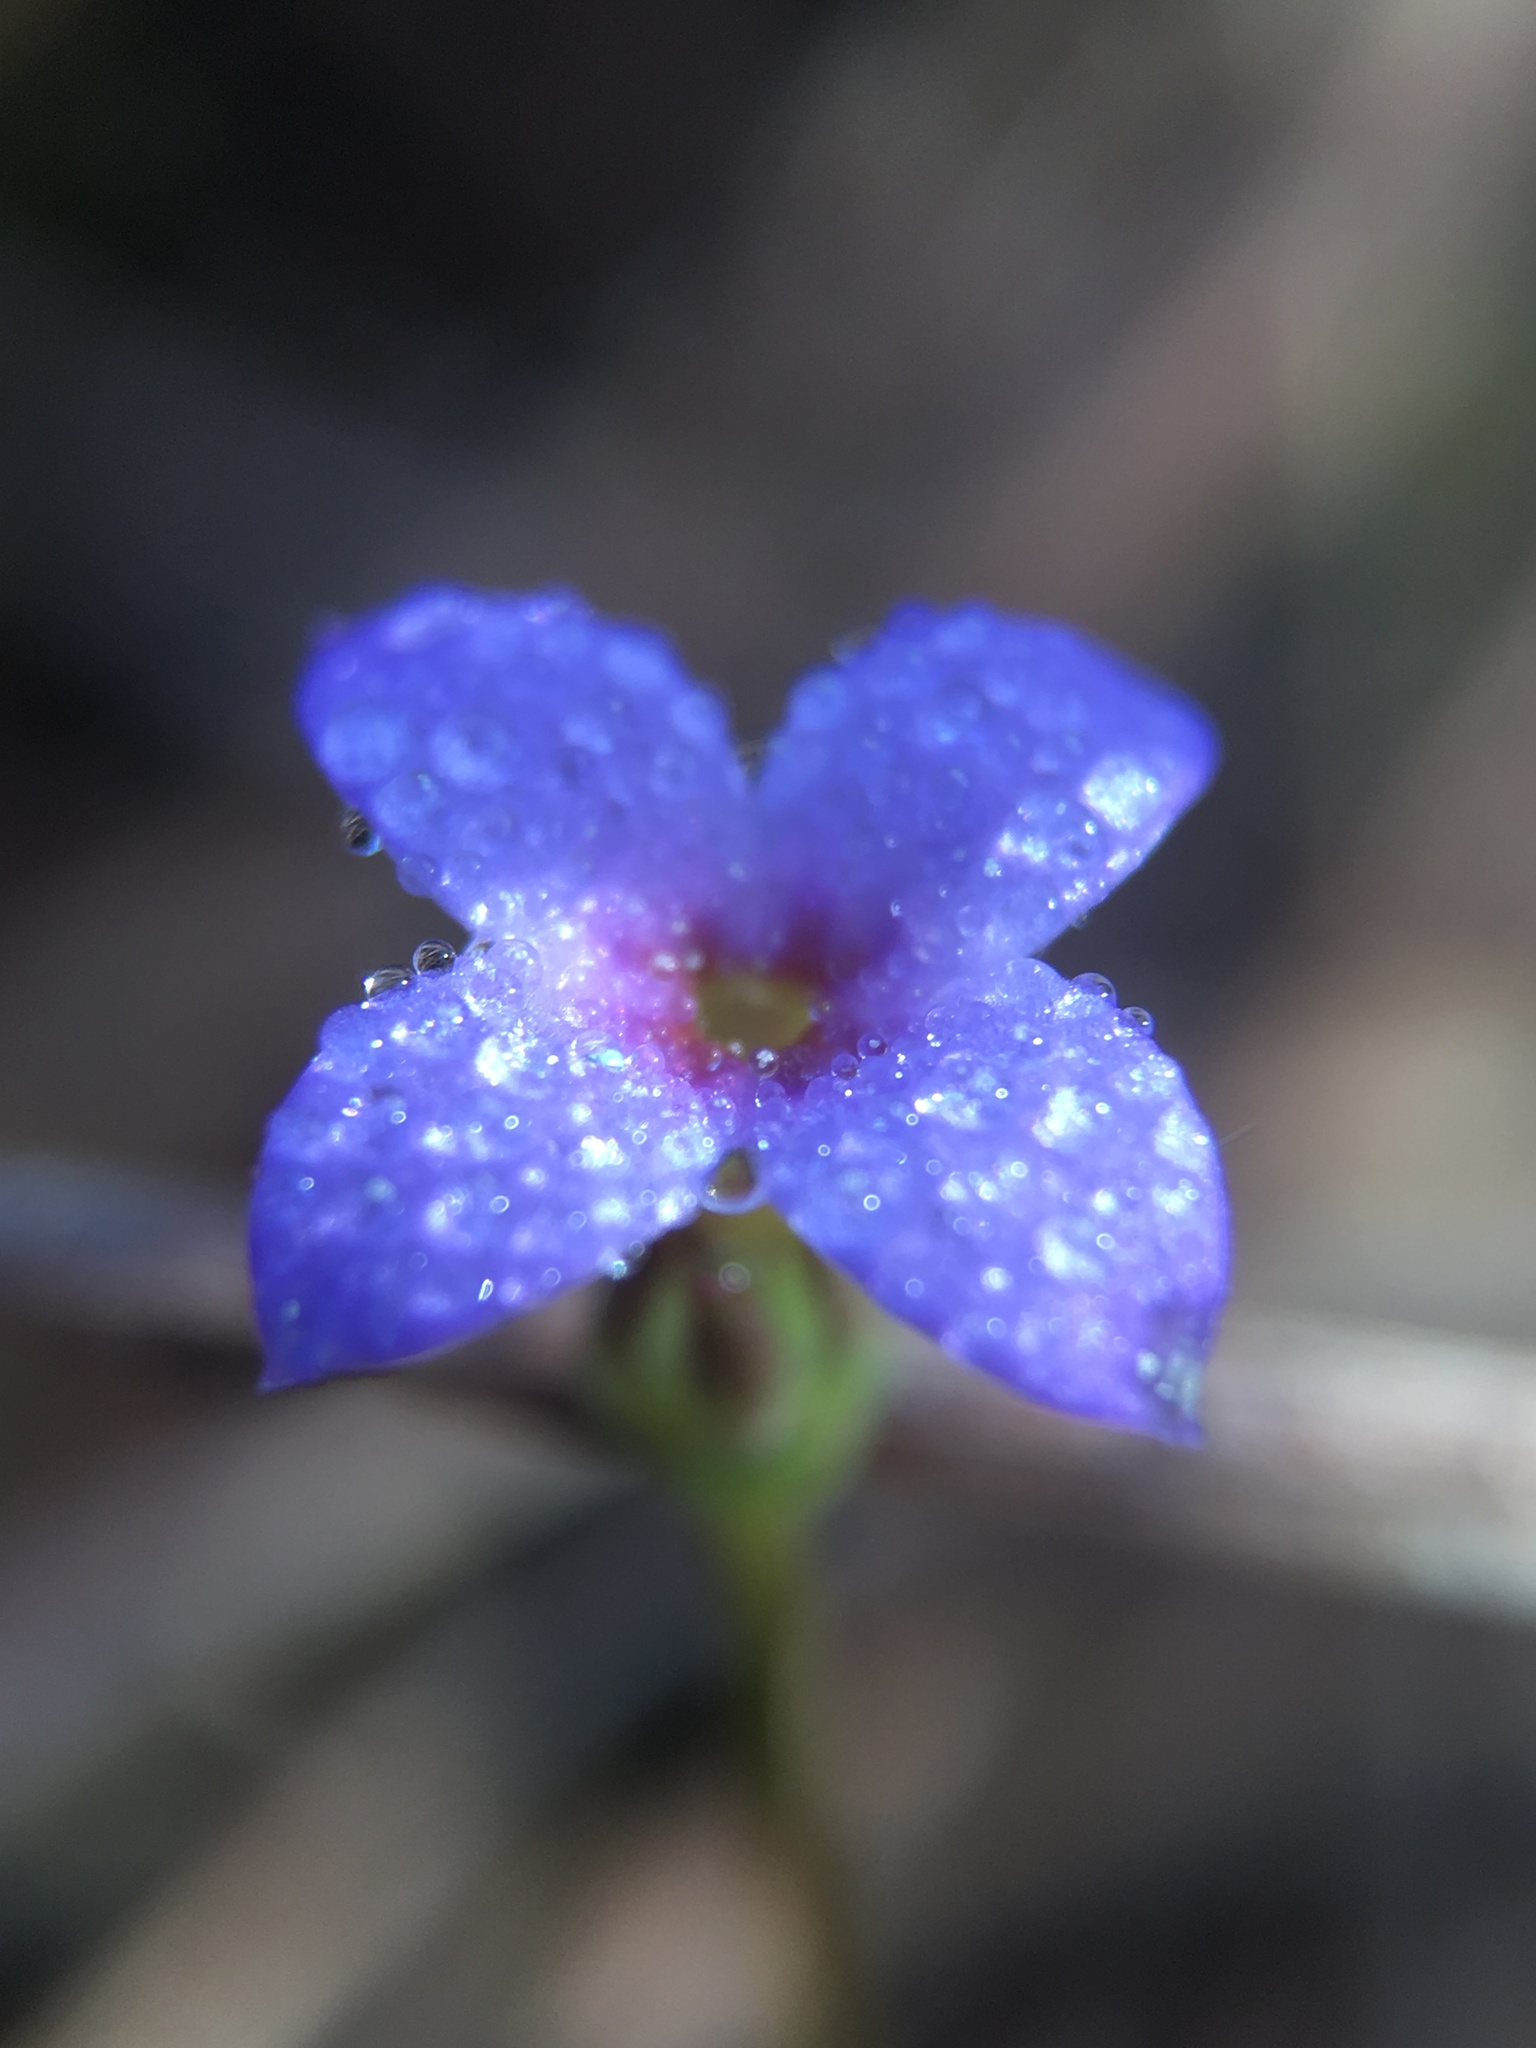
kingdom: Plantae
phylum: Tracheophyta
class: Magnoliopsida
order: Gentianales
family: Rubiaceae
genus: Houstonia
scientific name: Houstonia pusilla
